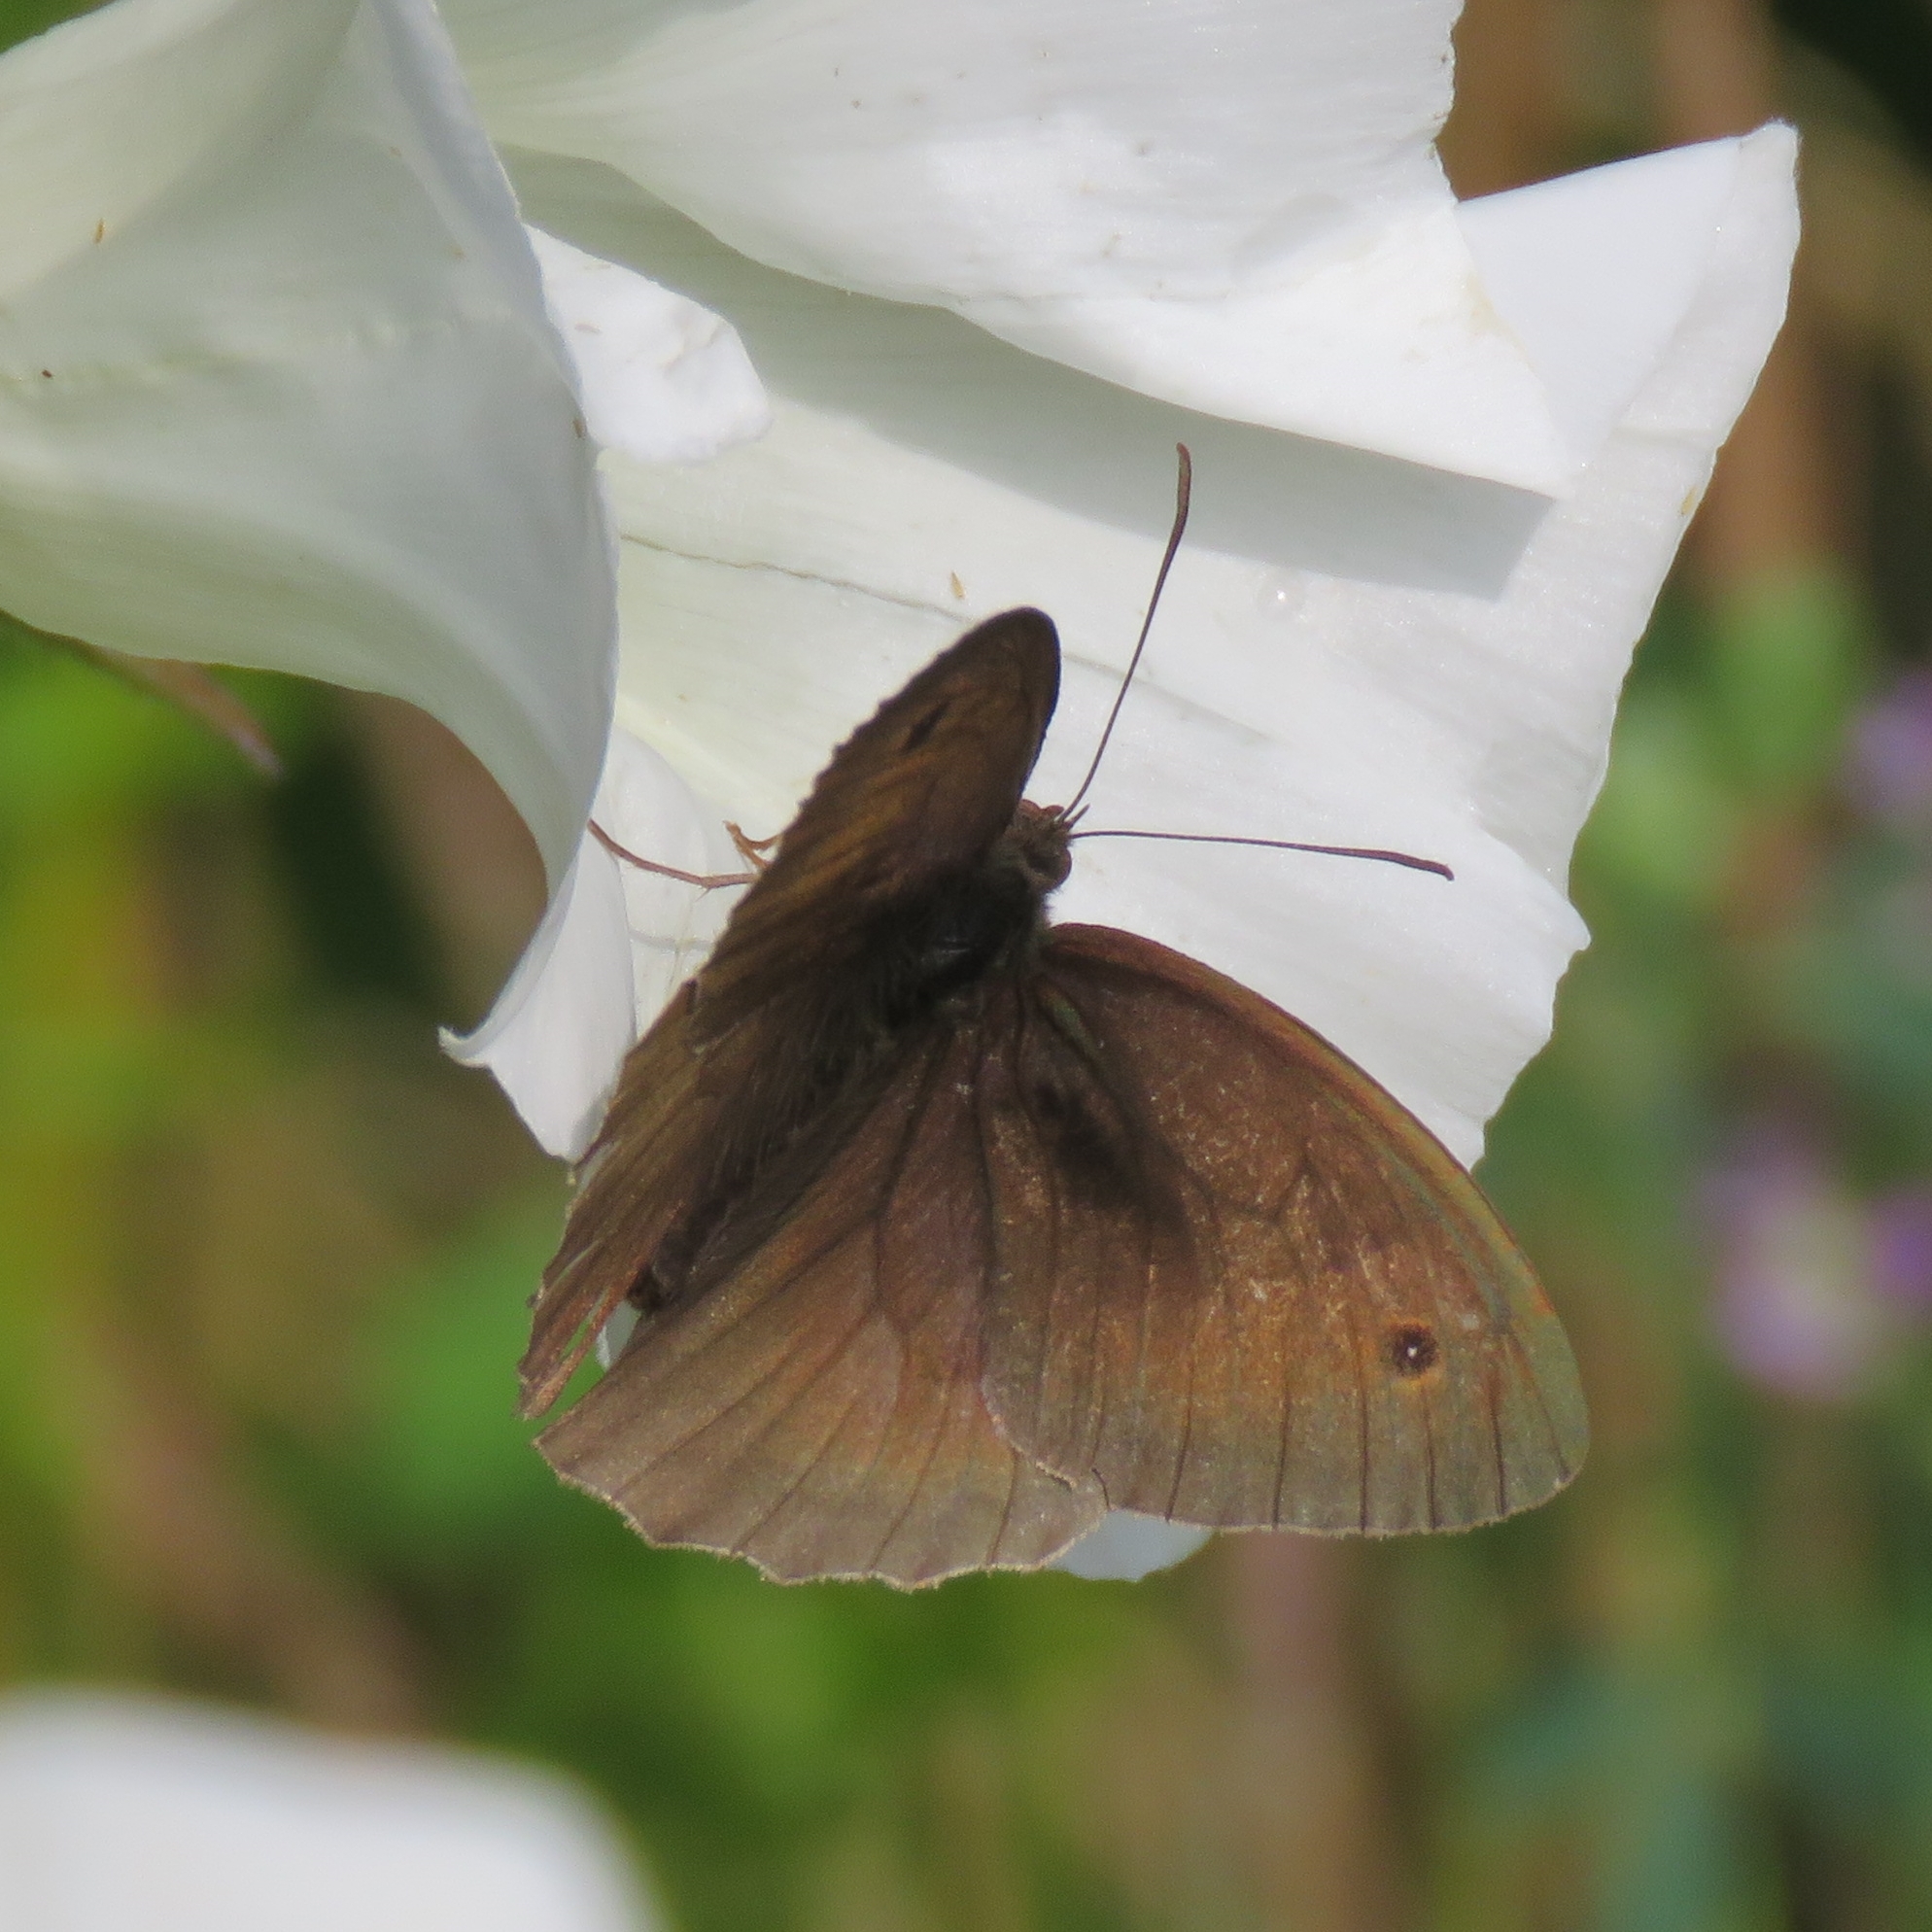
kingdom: Animalia
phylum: Arthropoda
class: Insecta
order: Lepidoptera
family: Nymphalidae
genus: Maniola
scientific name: Maniola jurtina
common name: Meadow brown
